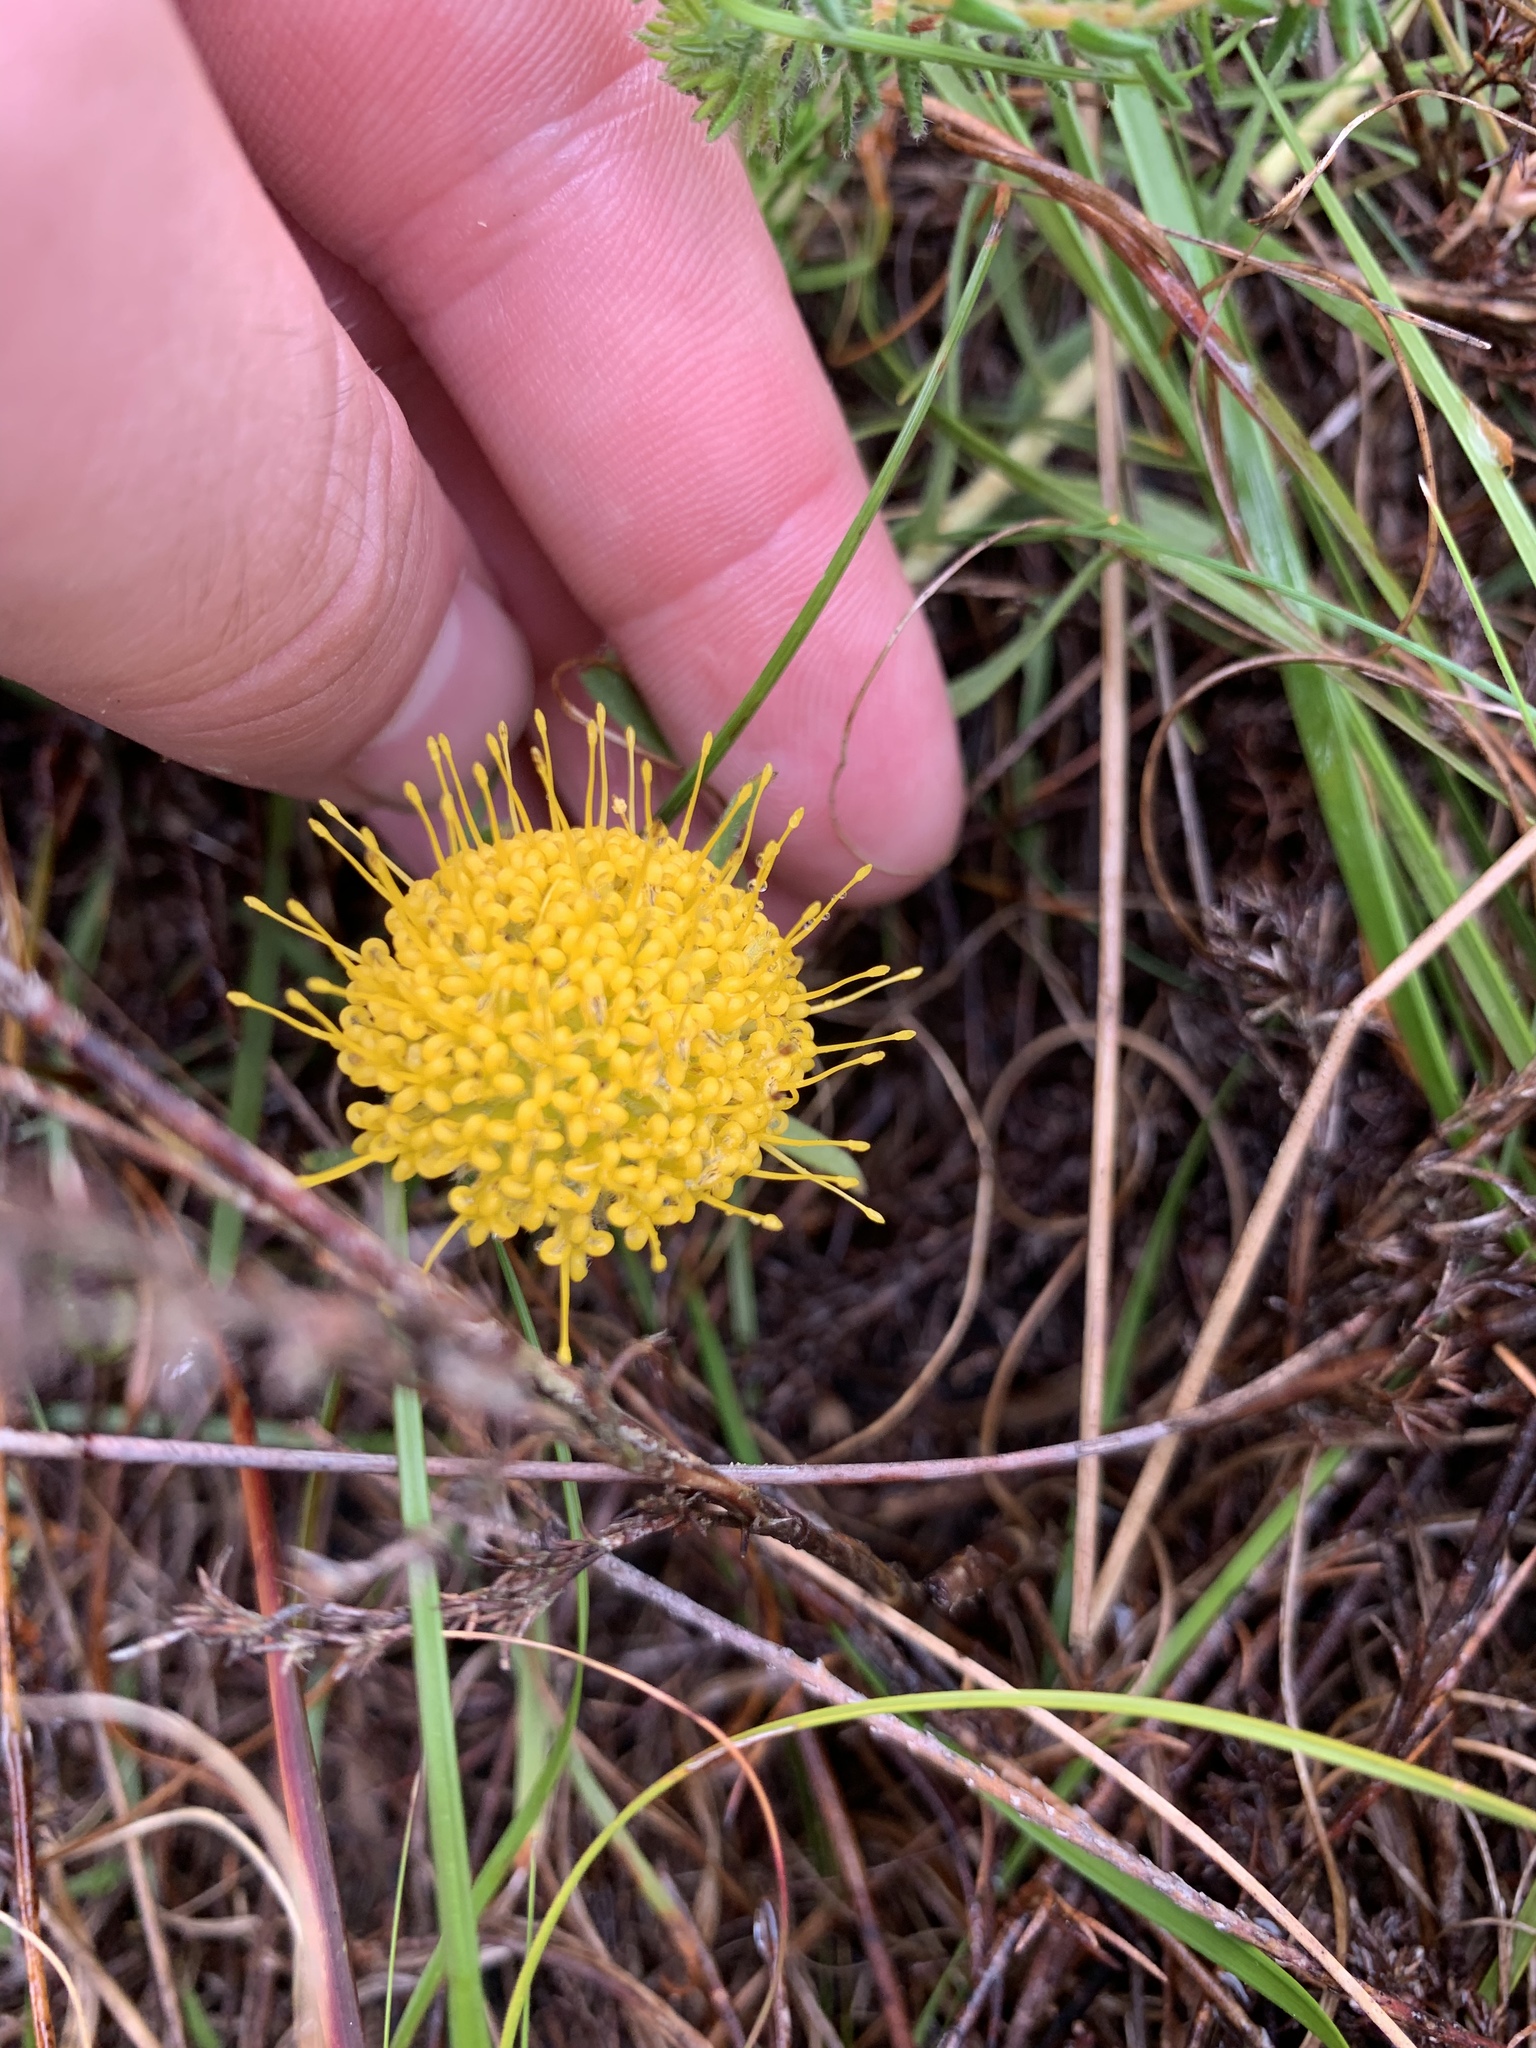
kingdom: Plantae
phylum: Tracheophyta
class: Magnoliopsida
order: Proteales
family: Proteaceae
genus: Leucospermum
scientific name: Leucospermum prostratum
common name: Yellow-trailing pincushion
